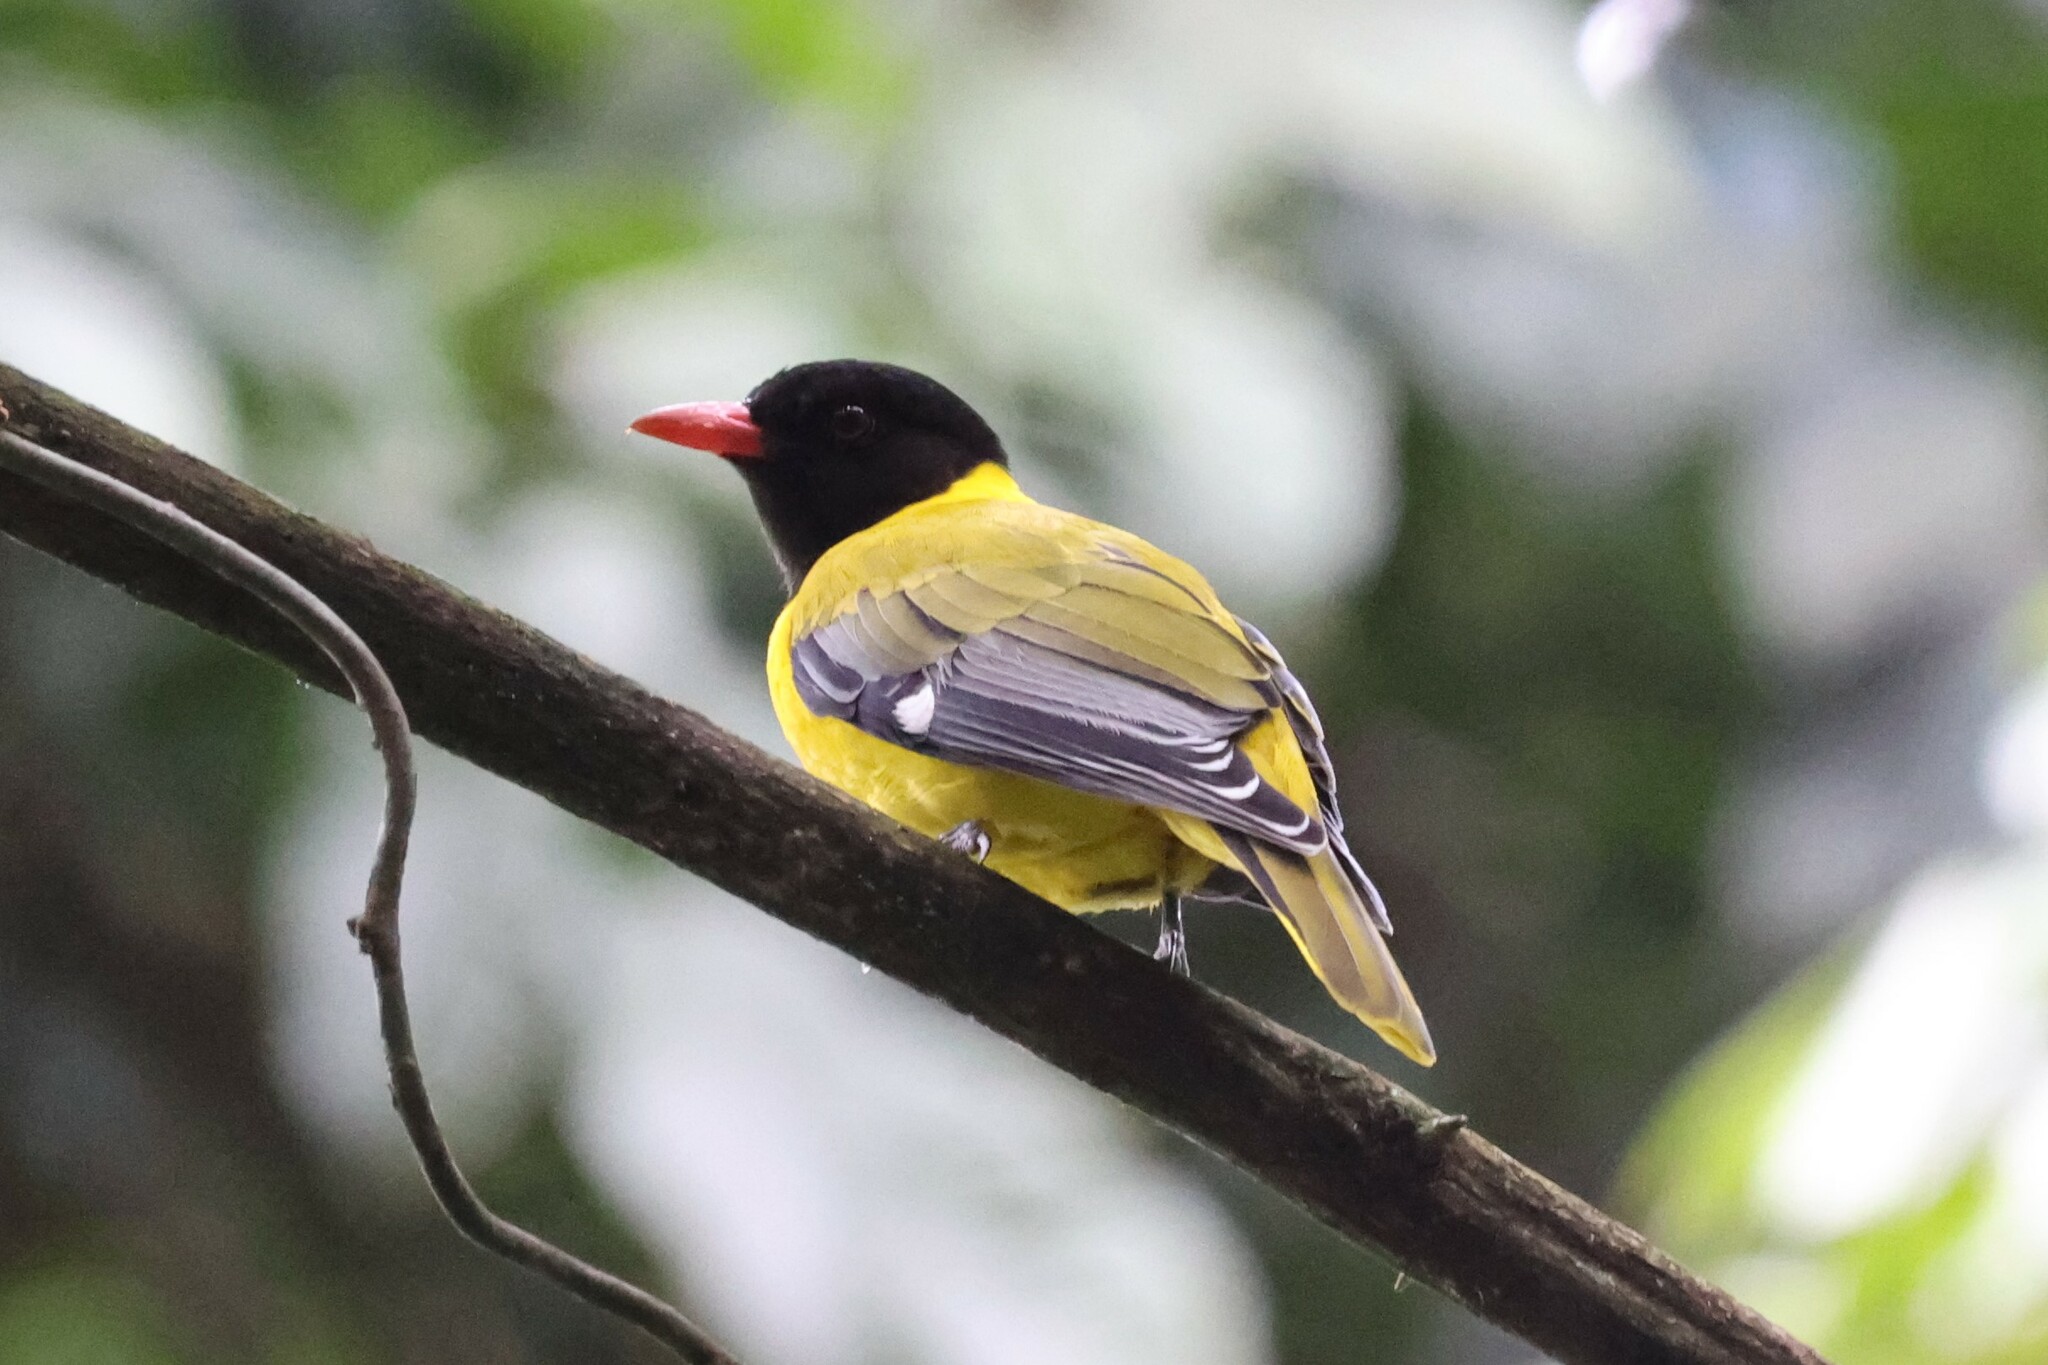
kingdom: Animalia
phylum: Chordata
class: Aves
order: Passeriformes
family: Oriolidae
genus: Oriolus
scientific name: Oriolus brachyrynchus
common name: Western oriole
